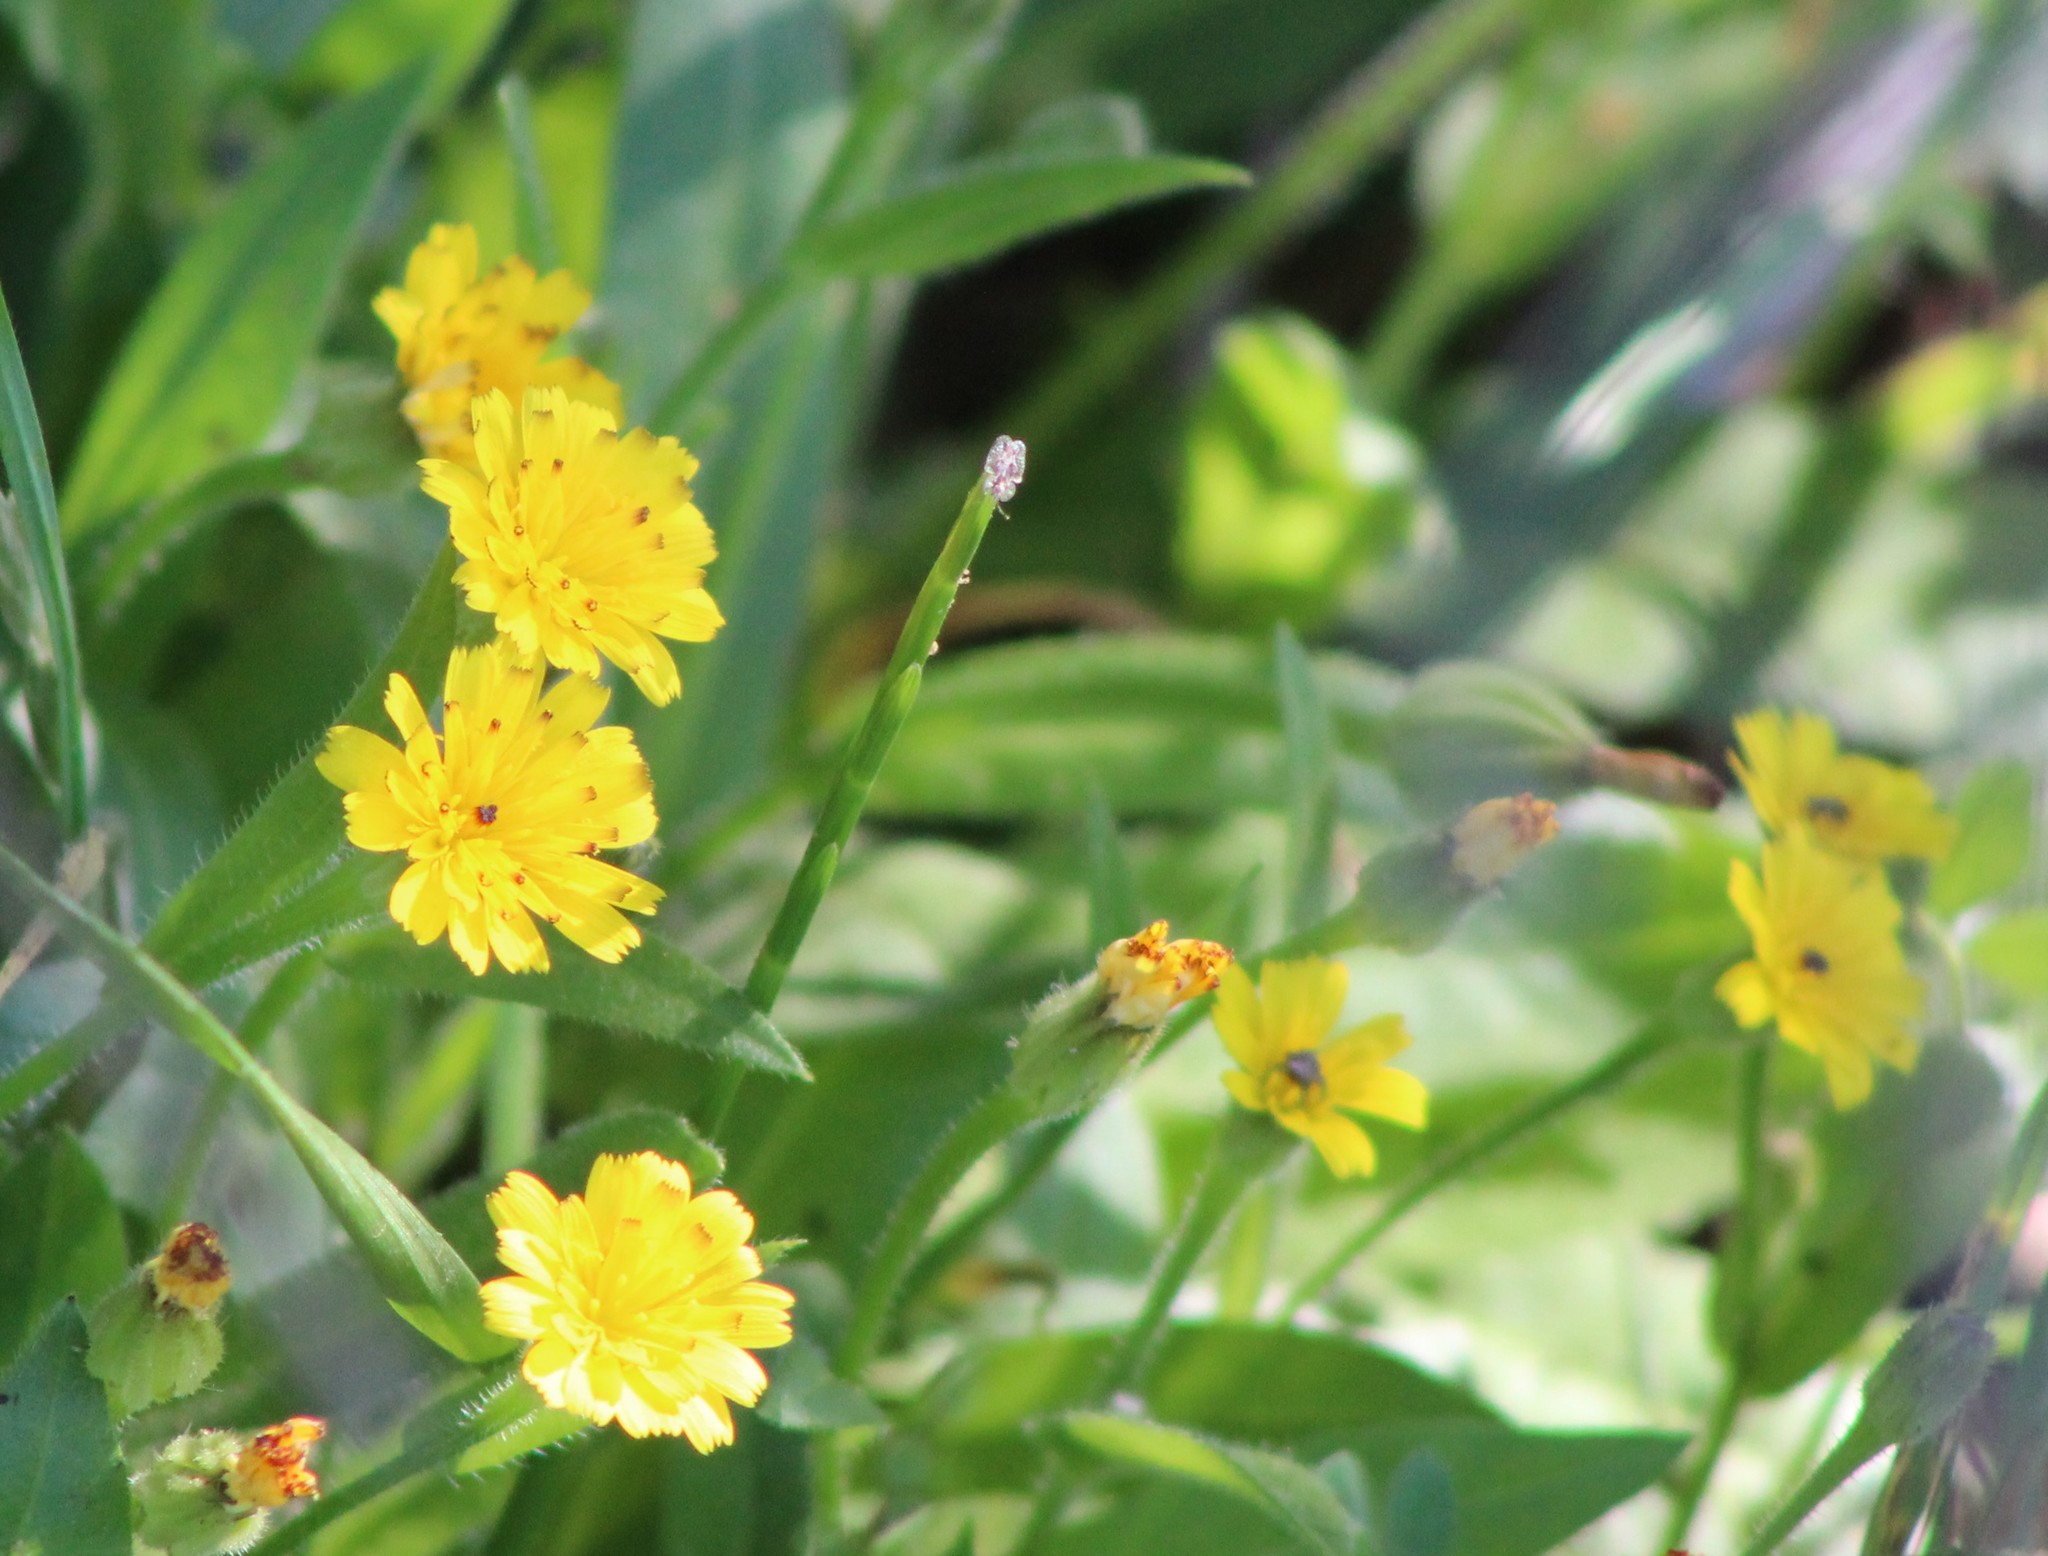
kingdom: Plantae
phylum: Tracheophyta
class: Magnoliopsida
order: Asterales
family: Asteraceae
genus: Hedypnois
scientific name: Hedypnois rhagadioloides
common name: Cretan weed
